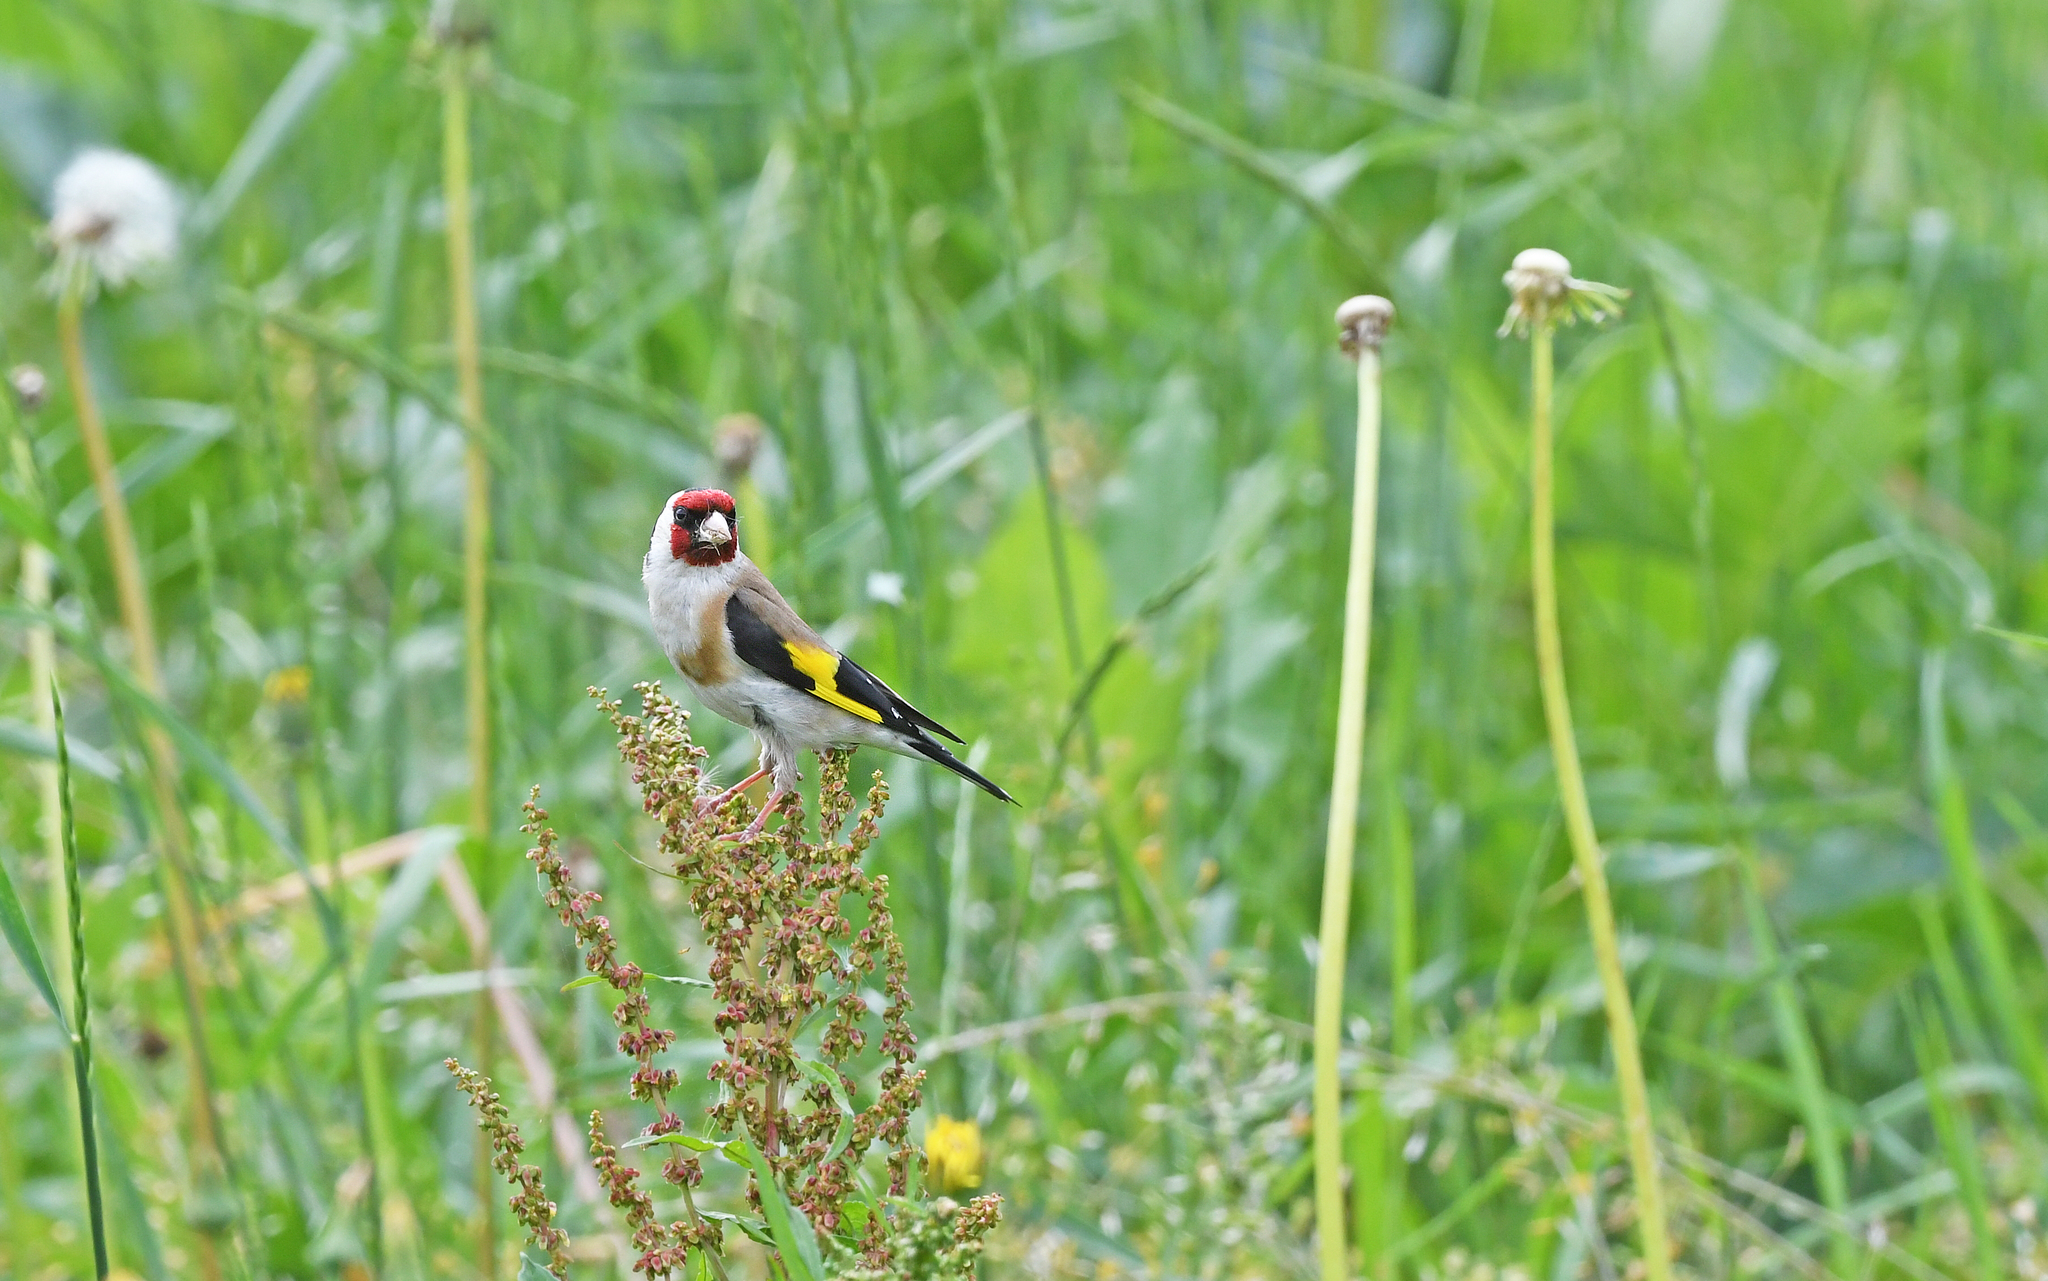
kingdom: Animalia
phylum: Chordata
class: Aves
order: Passeriformes
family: Fringillidae
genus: Carduelis
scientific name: Carduelis carduelis
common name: European goldfinch
